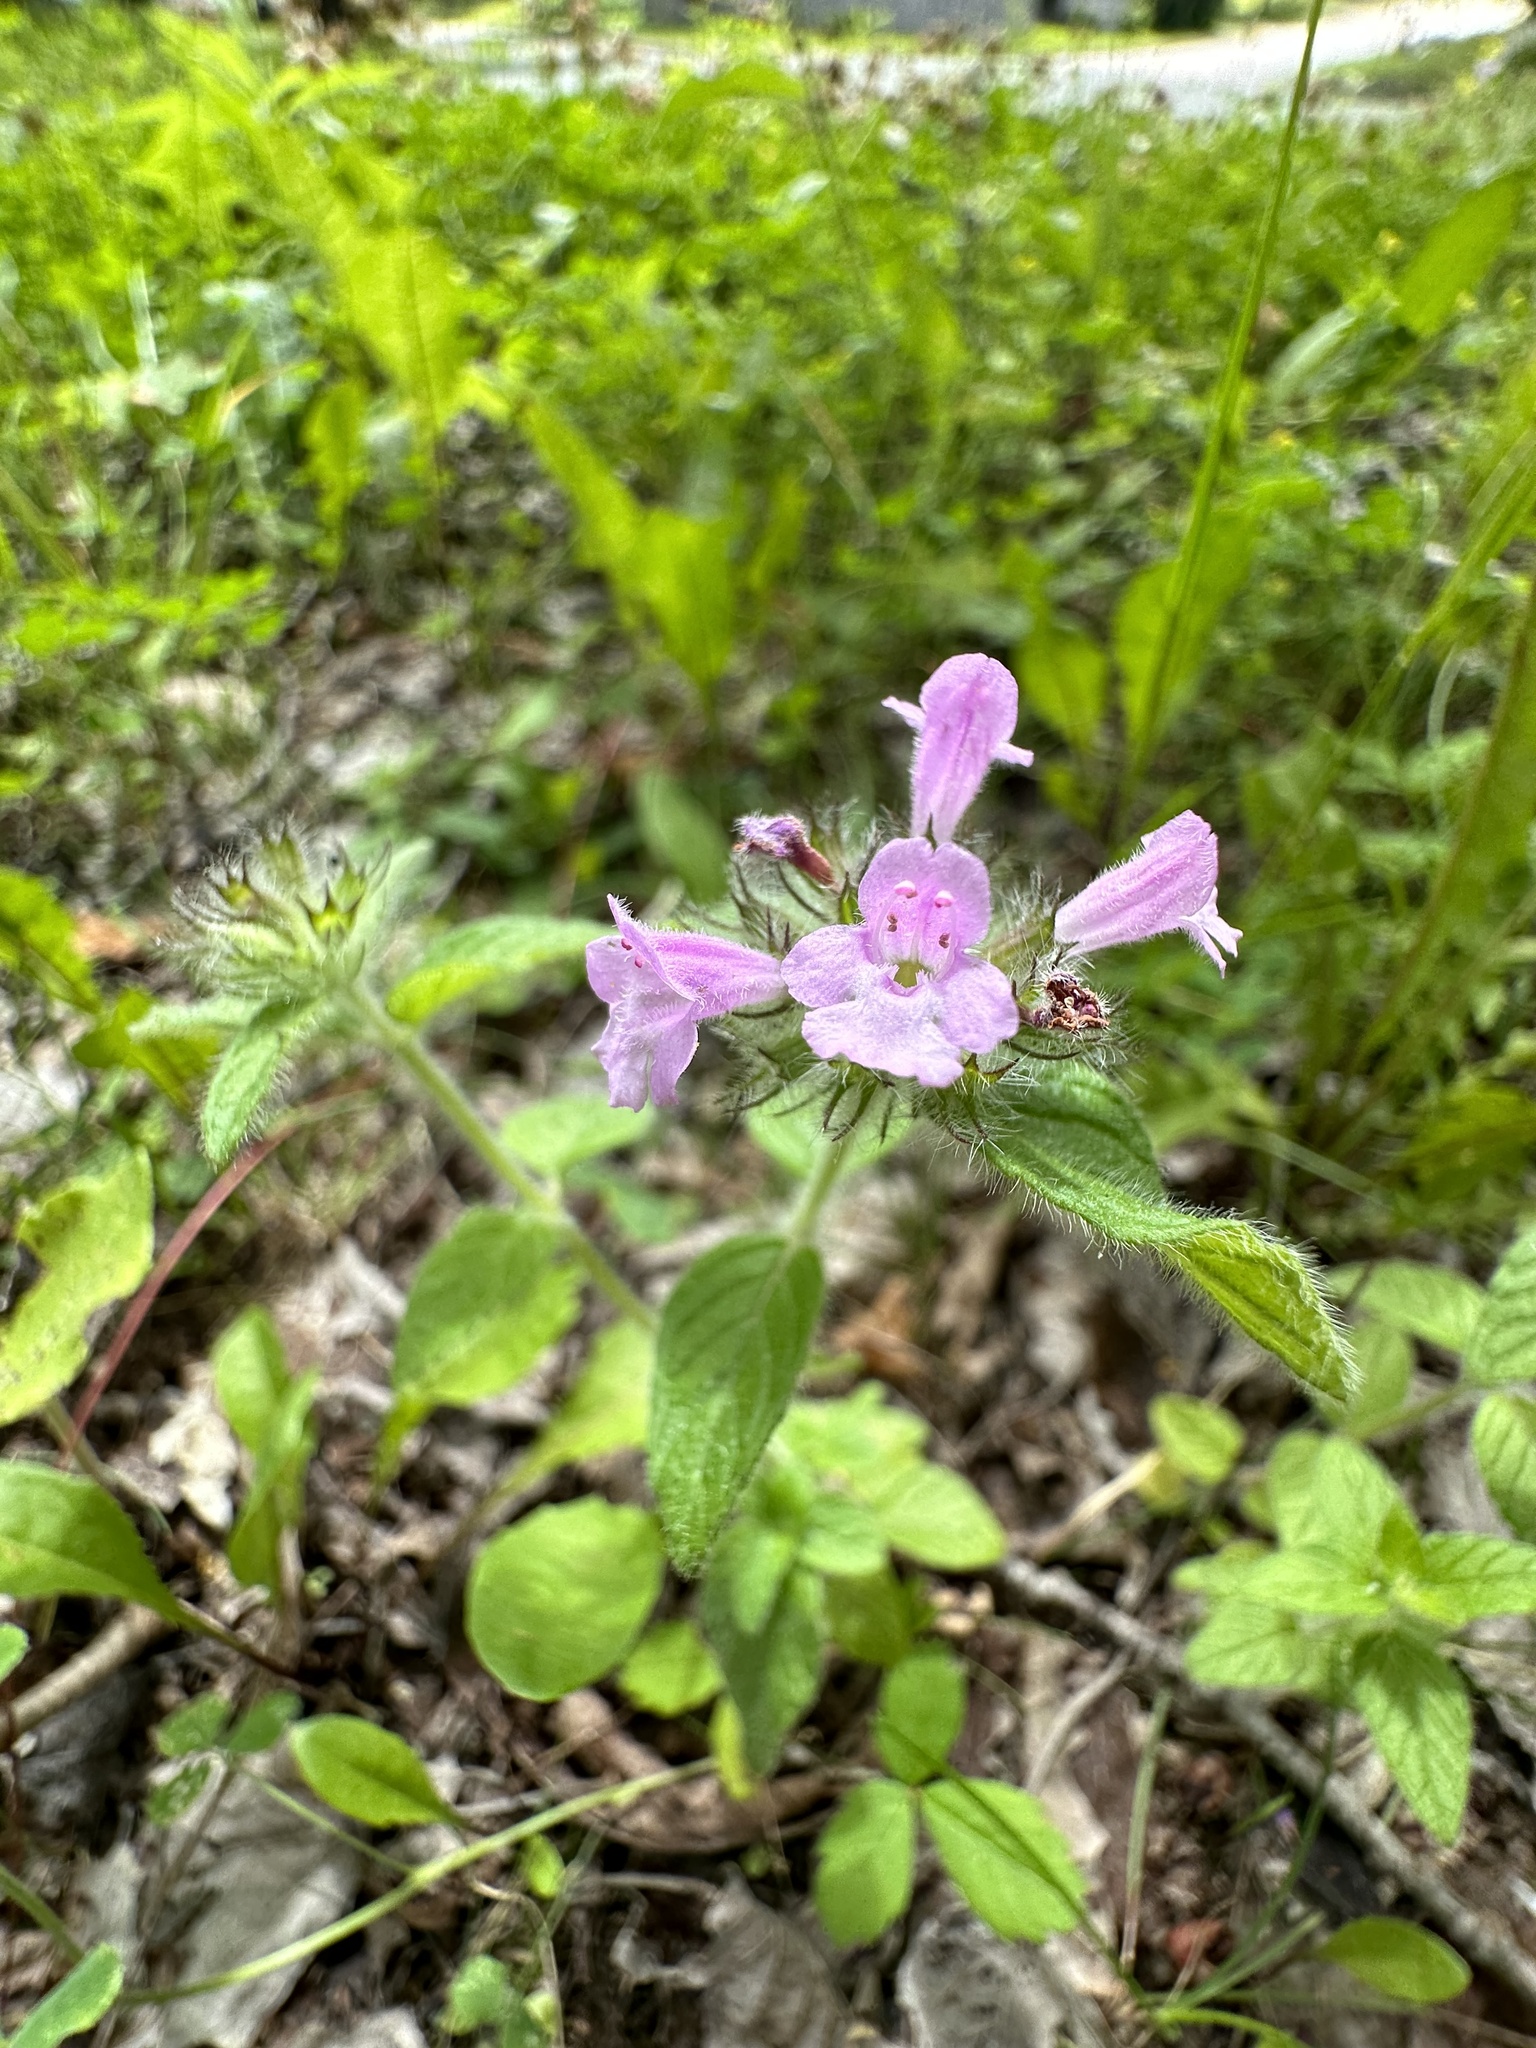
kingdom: Plantae
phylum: Tracheophyta
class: Magnoliopsida
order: Lamiales
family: Lamiaceae
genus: Clinopodium
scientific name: Clinopodium vulgare
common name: Wild basil
